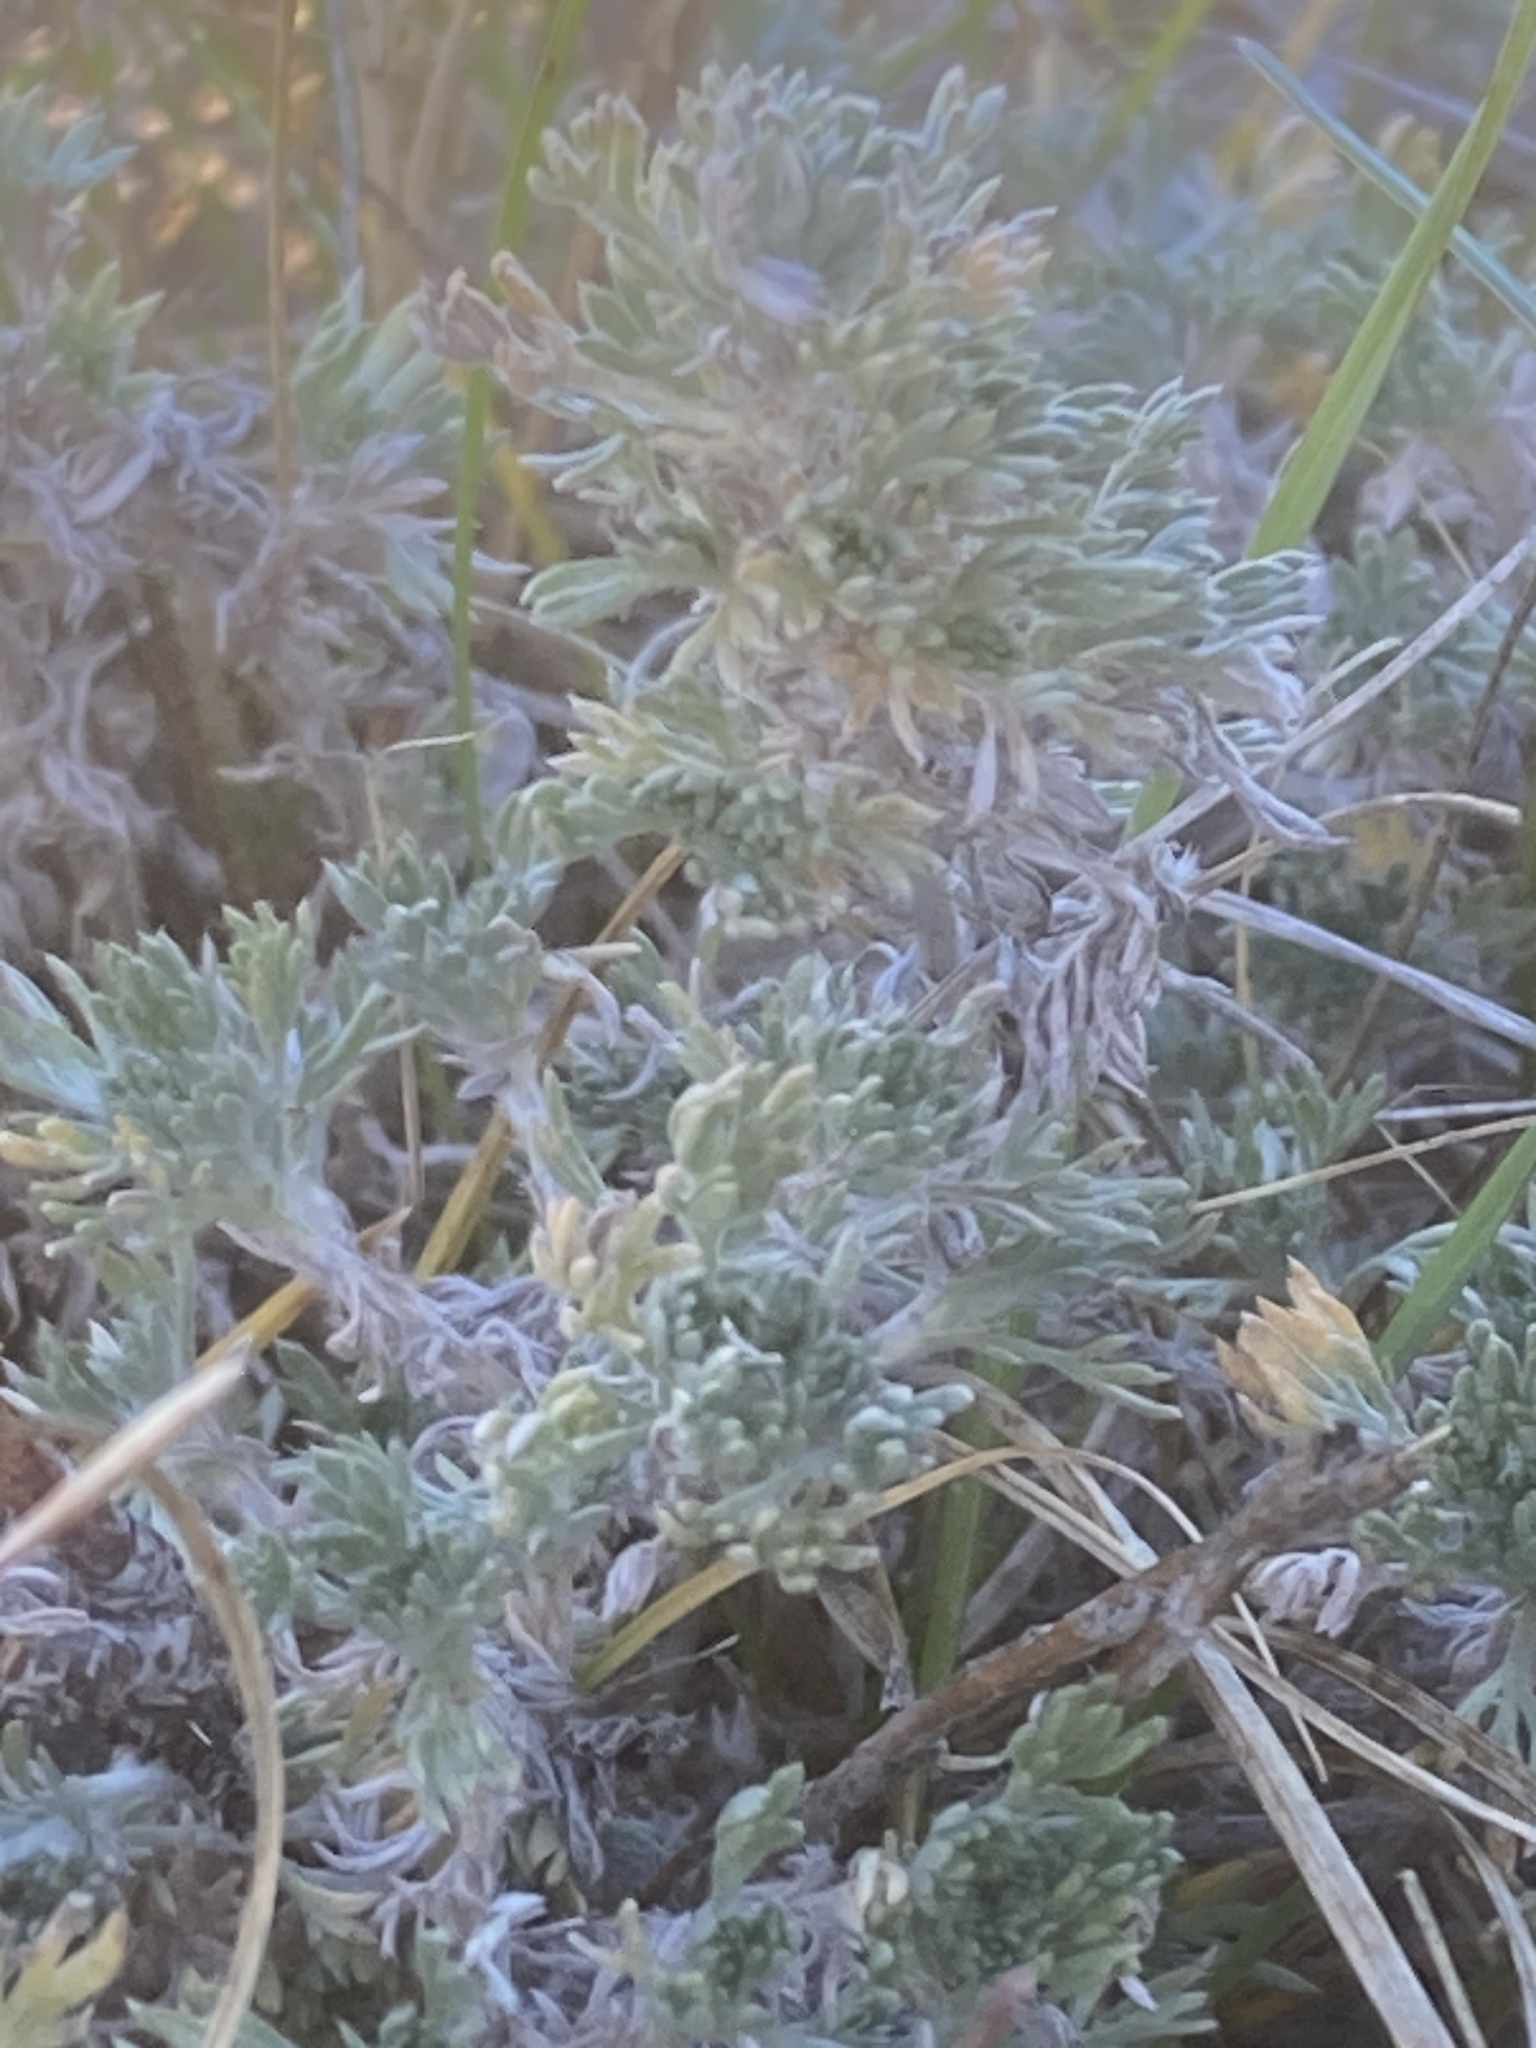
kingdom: Plantae
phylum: Tracheophyta
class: Magnoliopsida
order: Asterales
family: Asteraceae
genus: Artemisia
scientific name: Artemisia frigida
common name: Prairie sagewort
